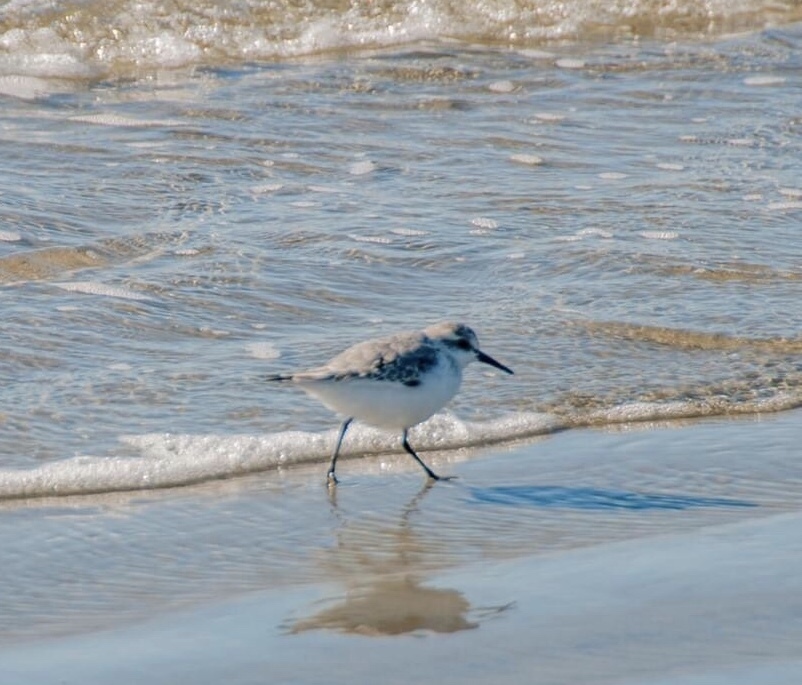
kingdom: Animalia
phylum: Chordata
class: Aves
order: Charadriiformes
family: Scolopacidae
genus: Calidris
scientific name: Calidris alba
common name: Sanderling
